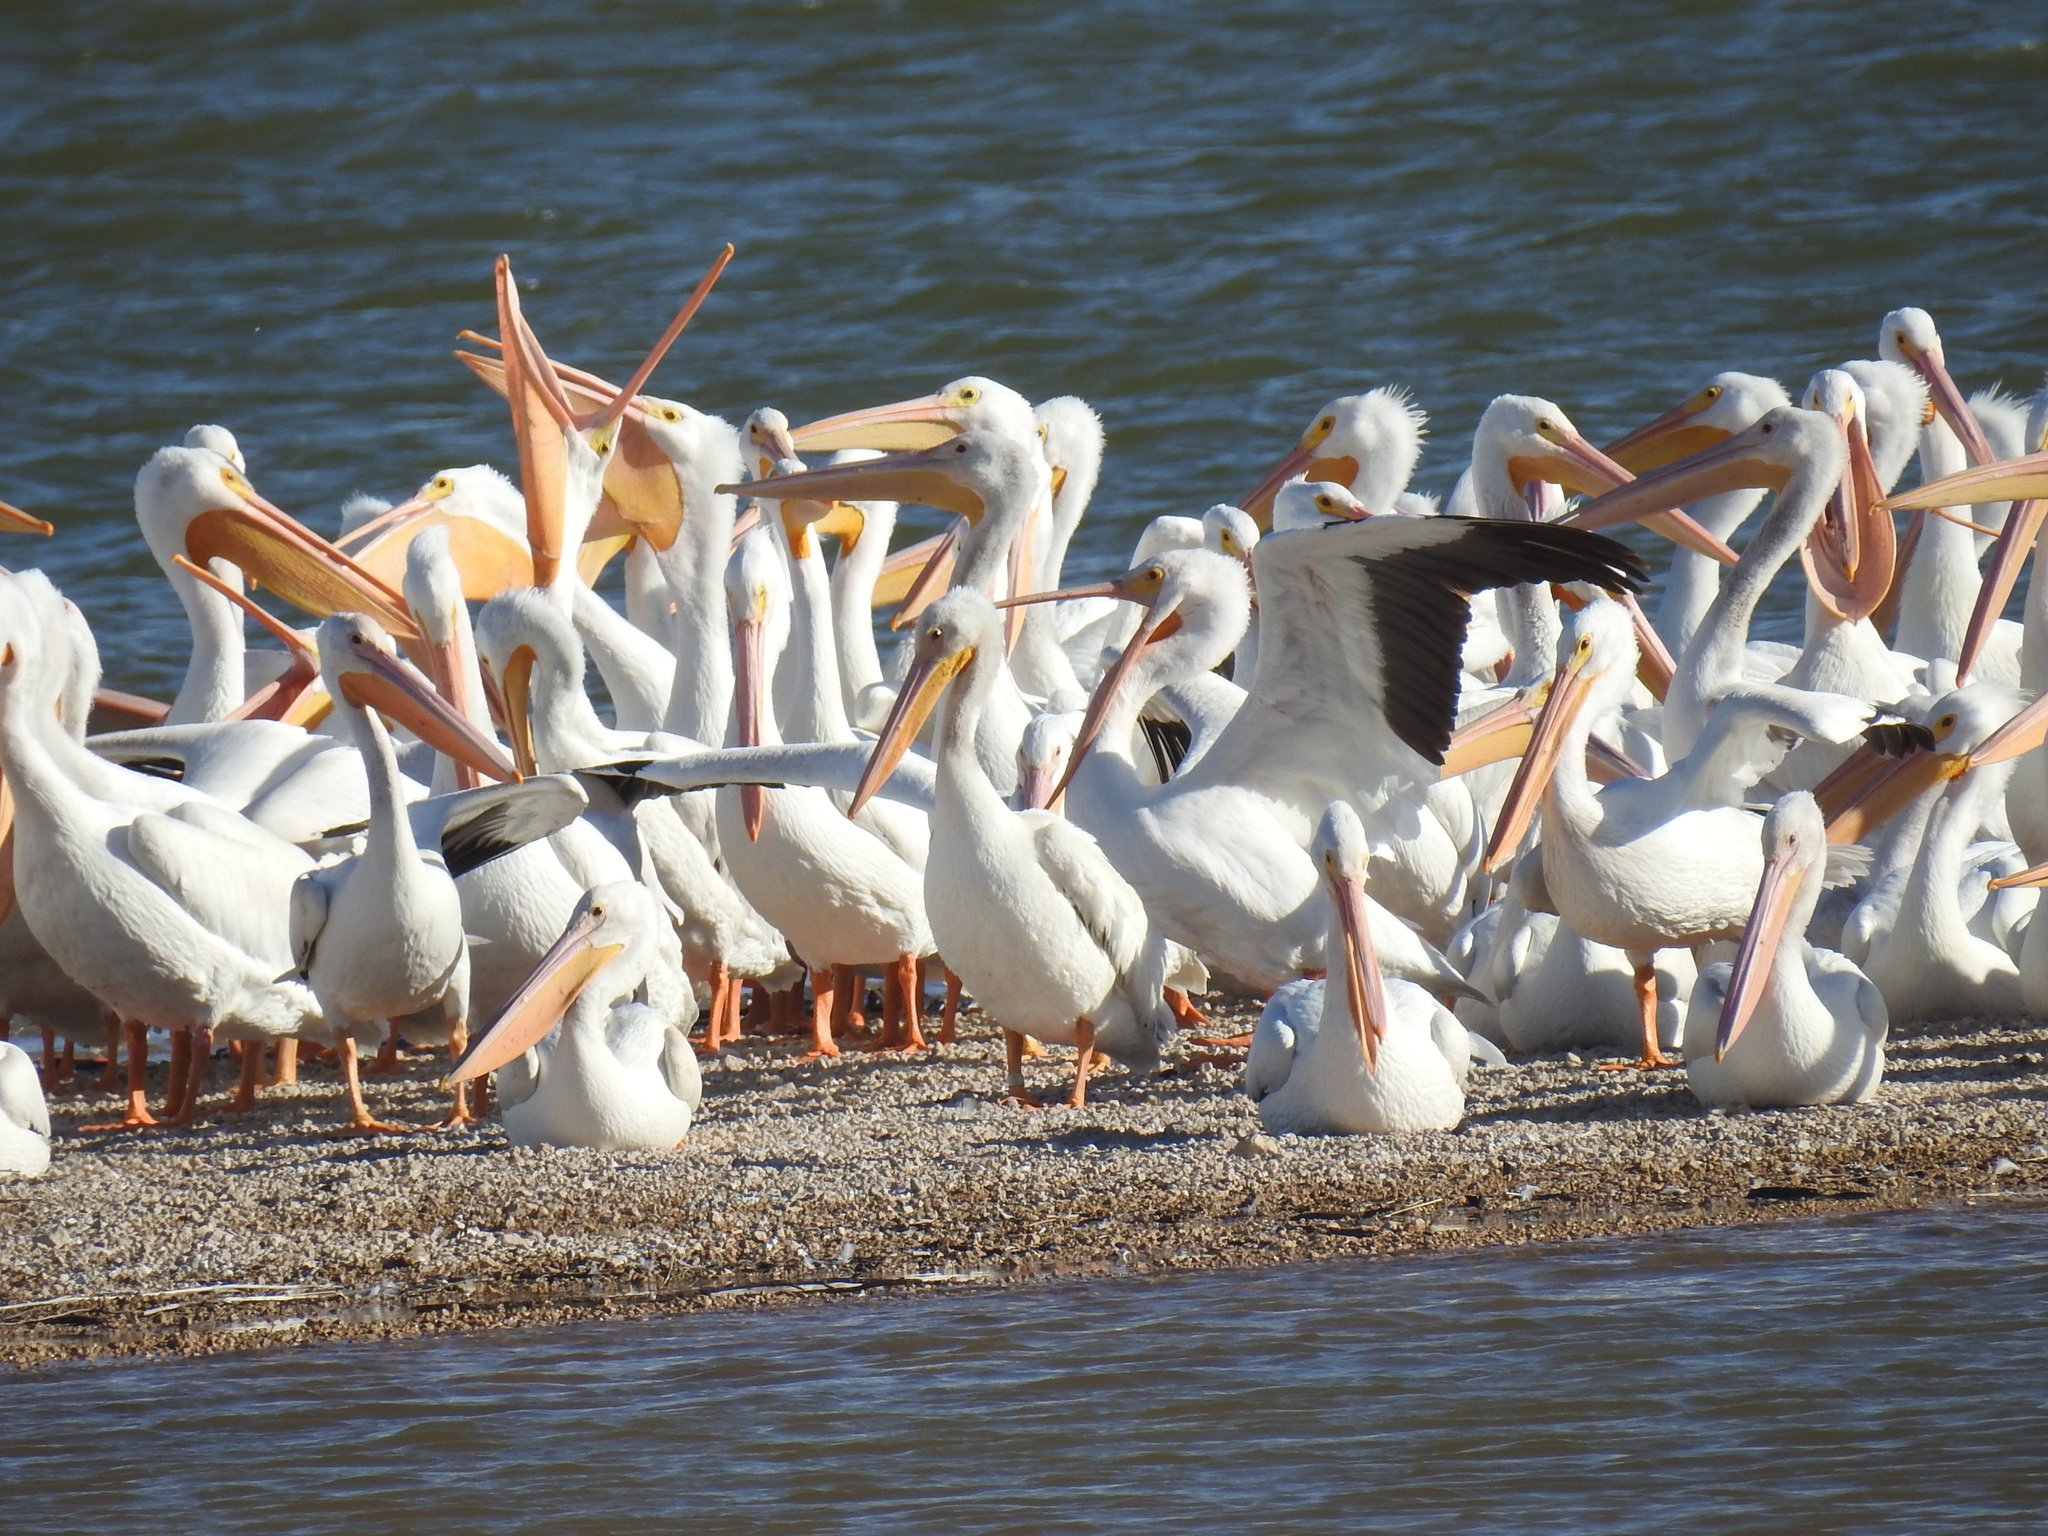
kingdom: Animalia
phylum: Chordata
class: Aves
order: Pelecaniformes
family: Pelecanidae
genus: Pelecanus
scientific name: Pelecanus erythrorhynchos
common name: American white pelican
